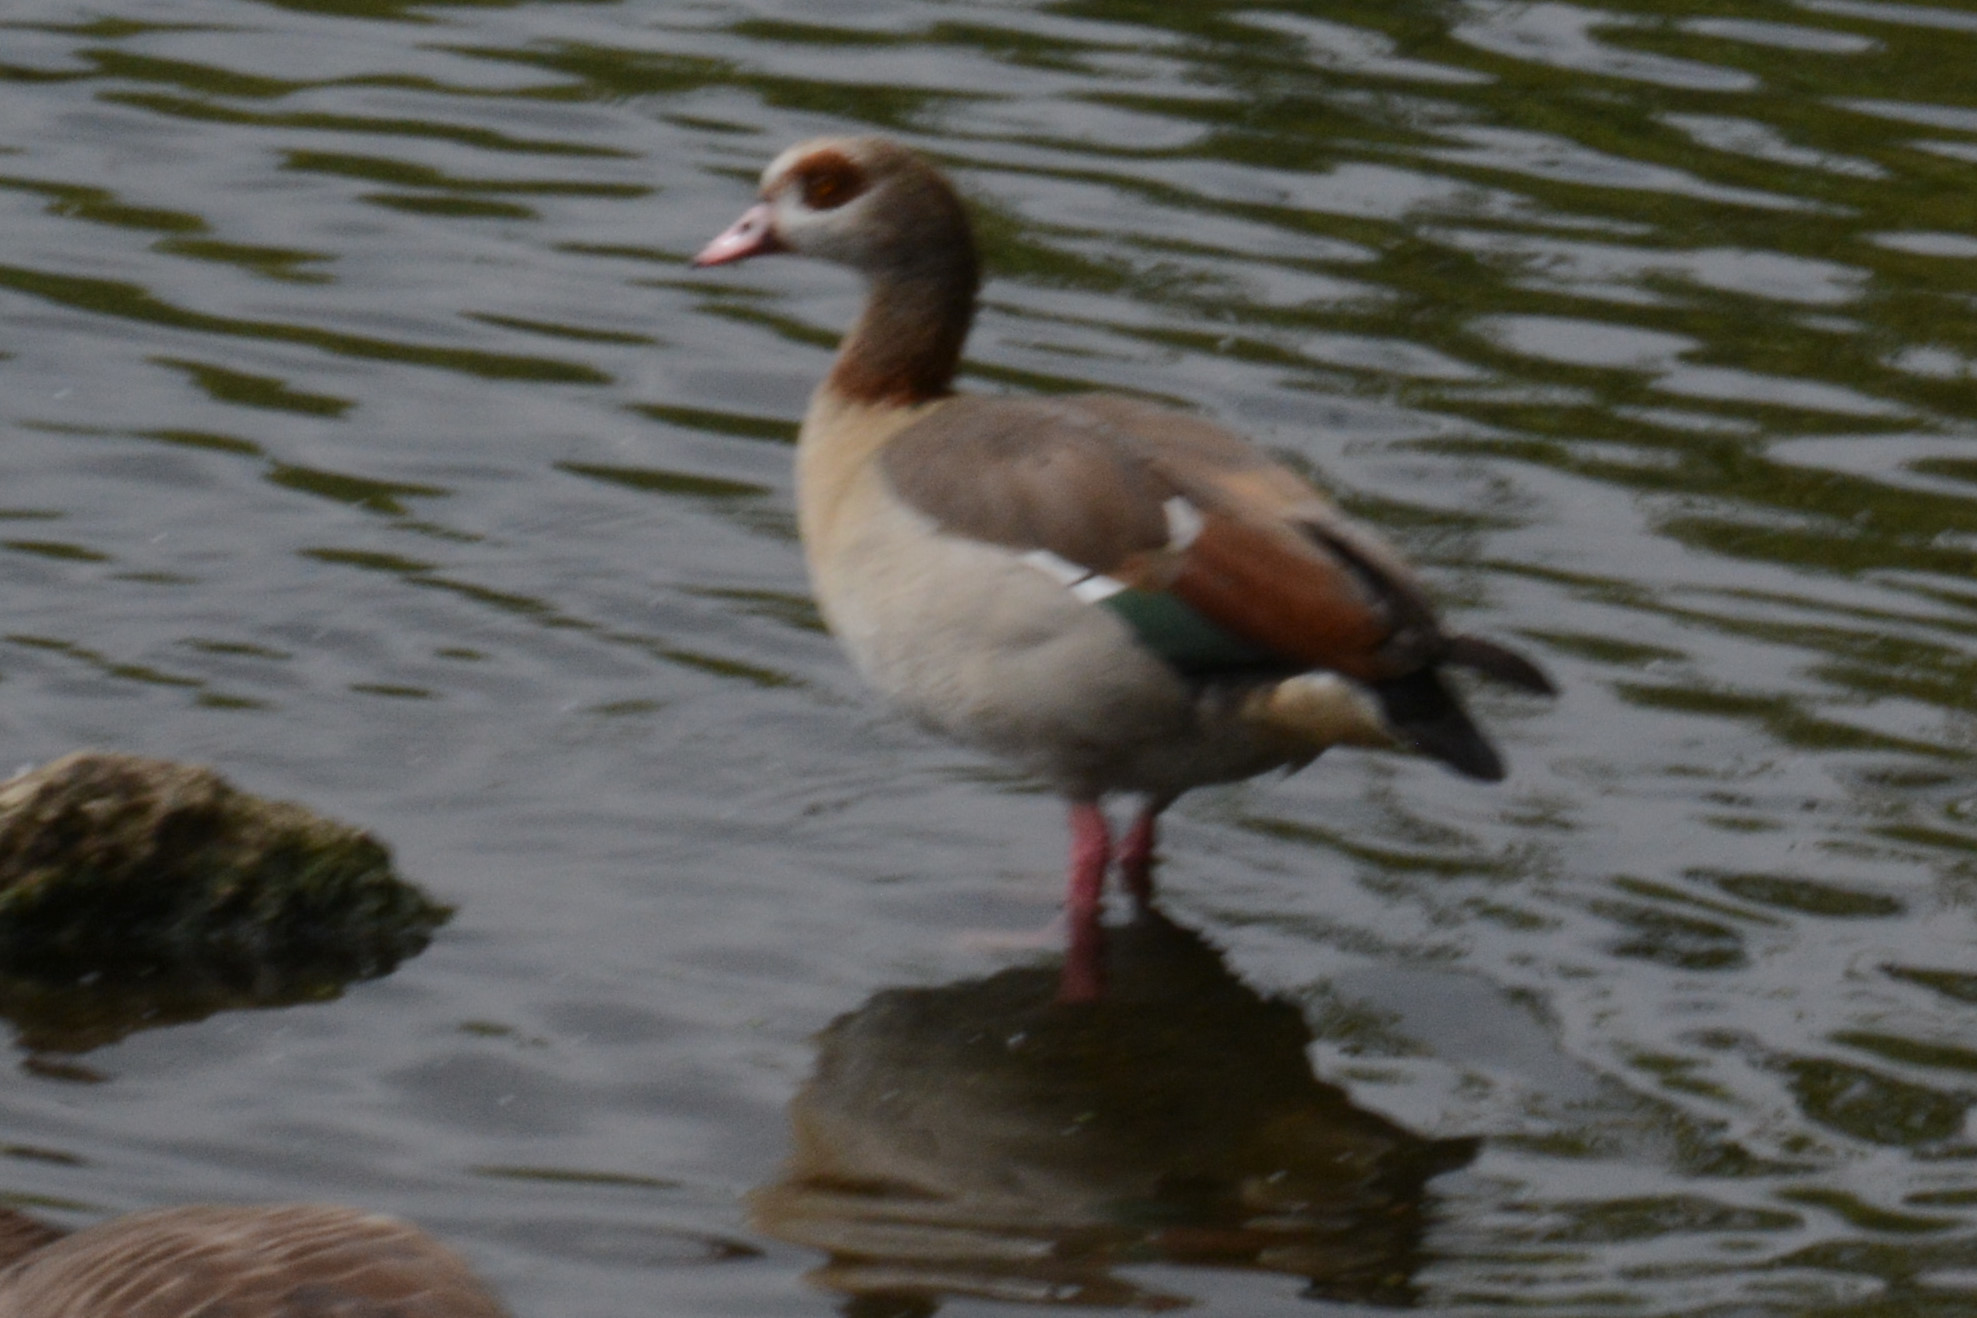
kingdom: Animalia
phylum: Chordata
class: Aves
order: Anseriformes
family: Anatidae
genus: Alopochen
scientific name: Alopochen aegyptiaca
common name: Egyptian goose
